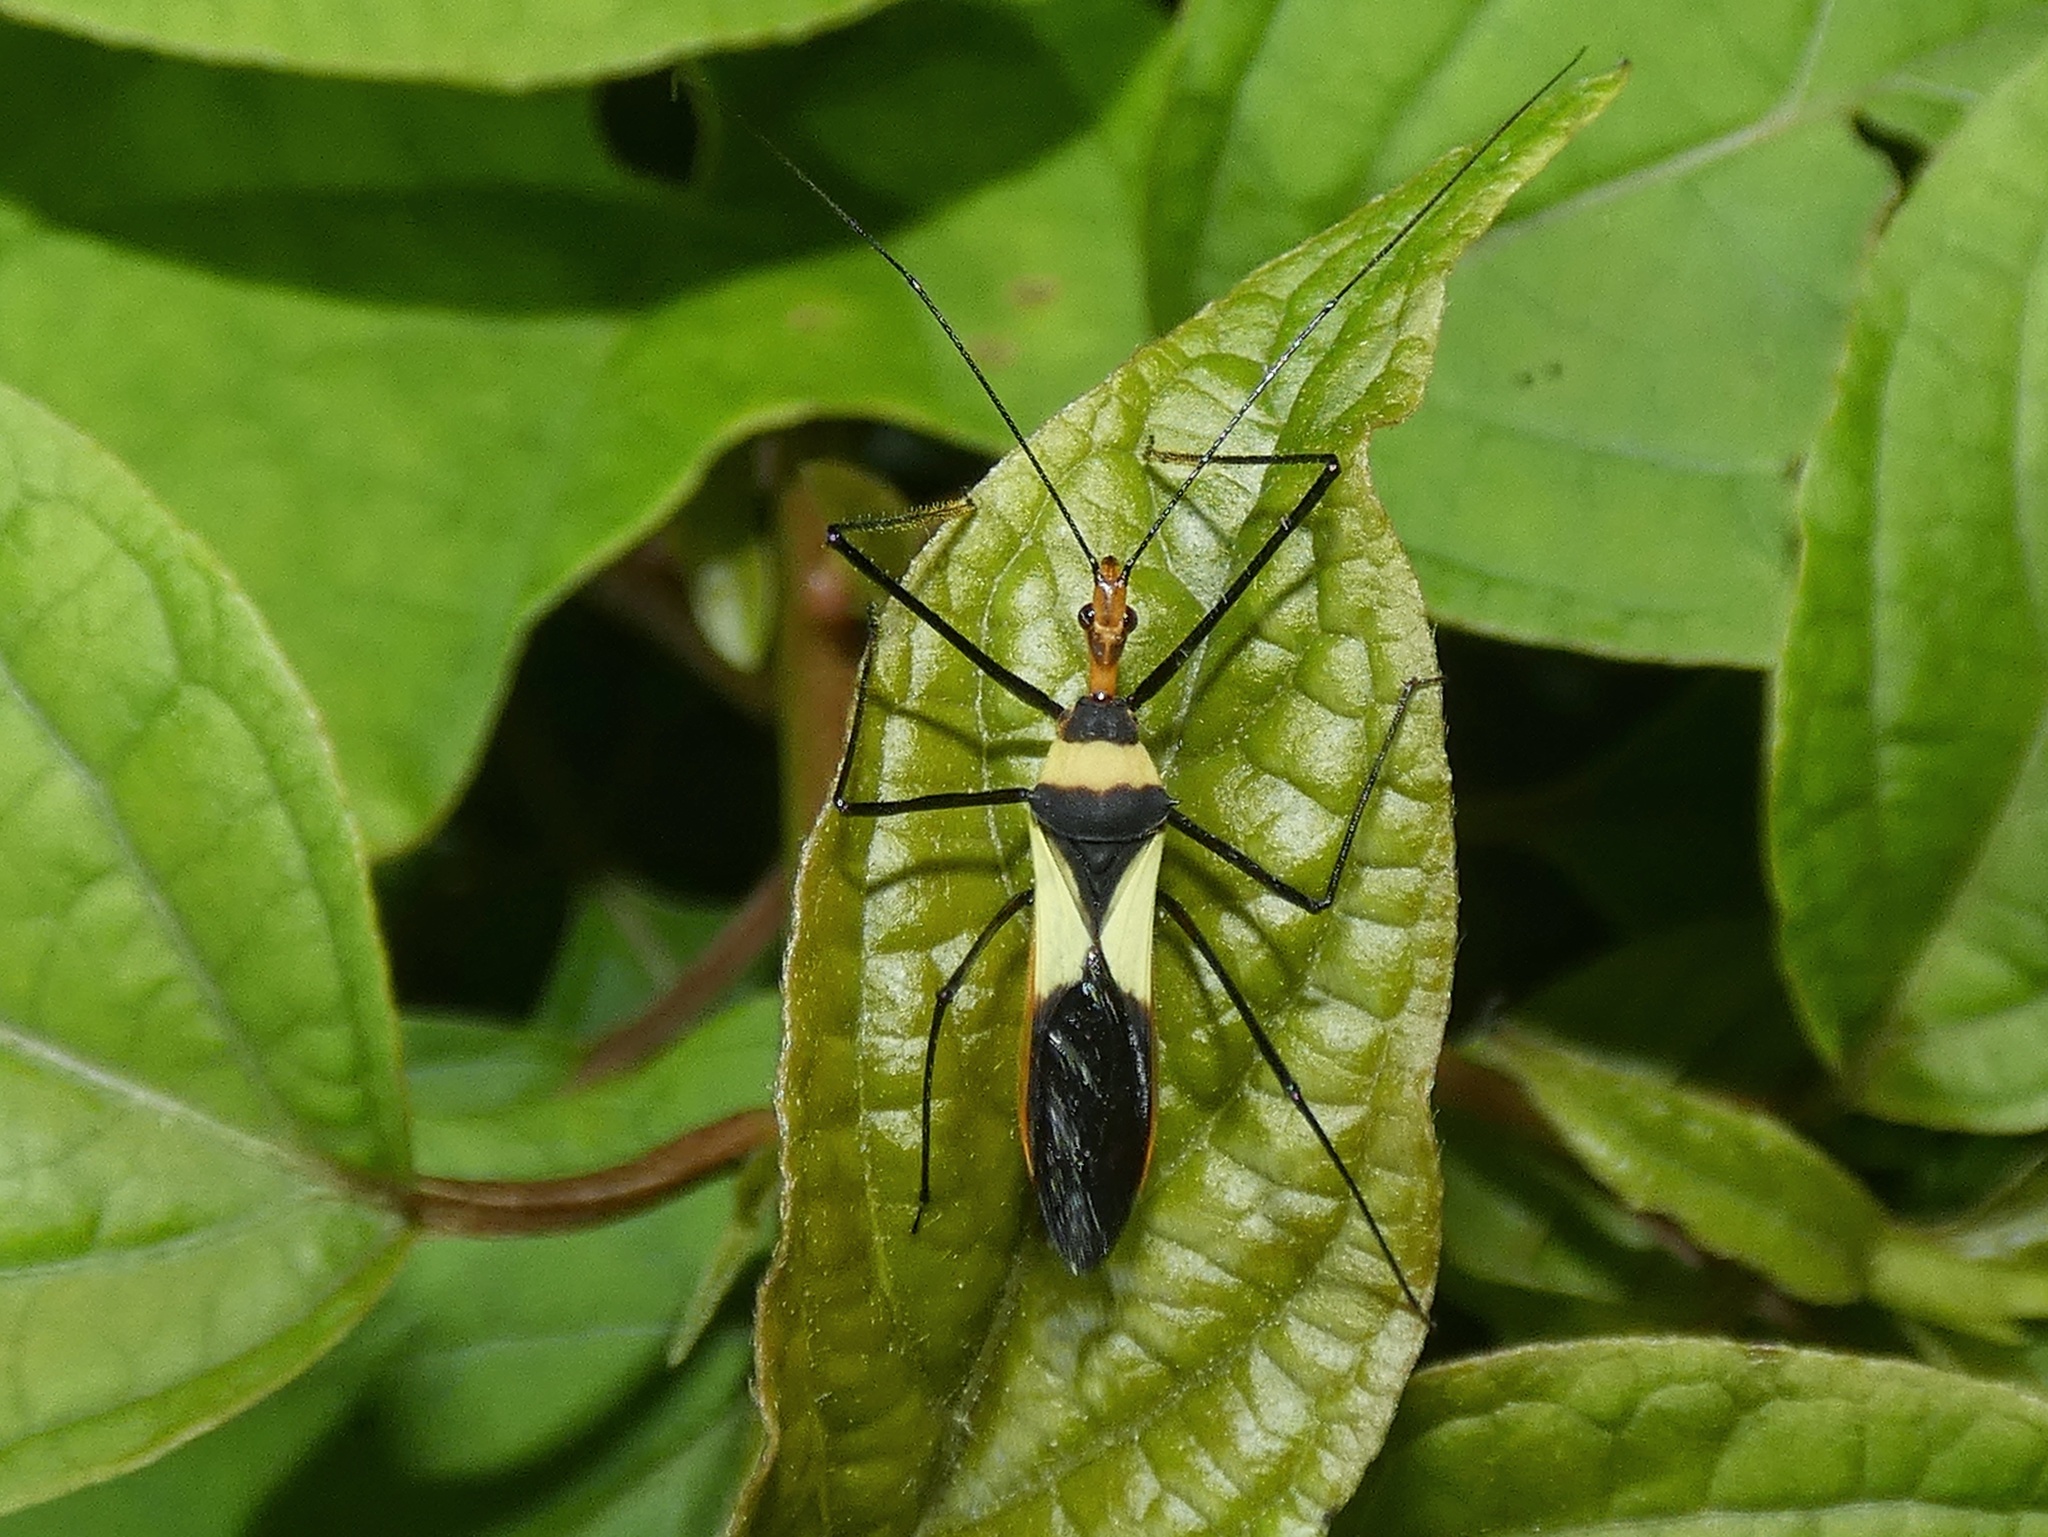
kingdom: Animalia
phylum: Arthropoda
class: Insecta
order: Hemiptera
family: Reduviidae
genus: Zelus
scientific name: Zelus fasciatus
